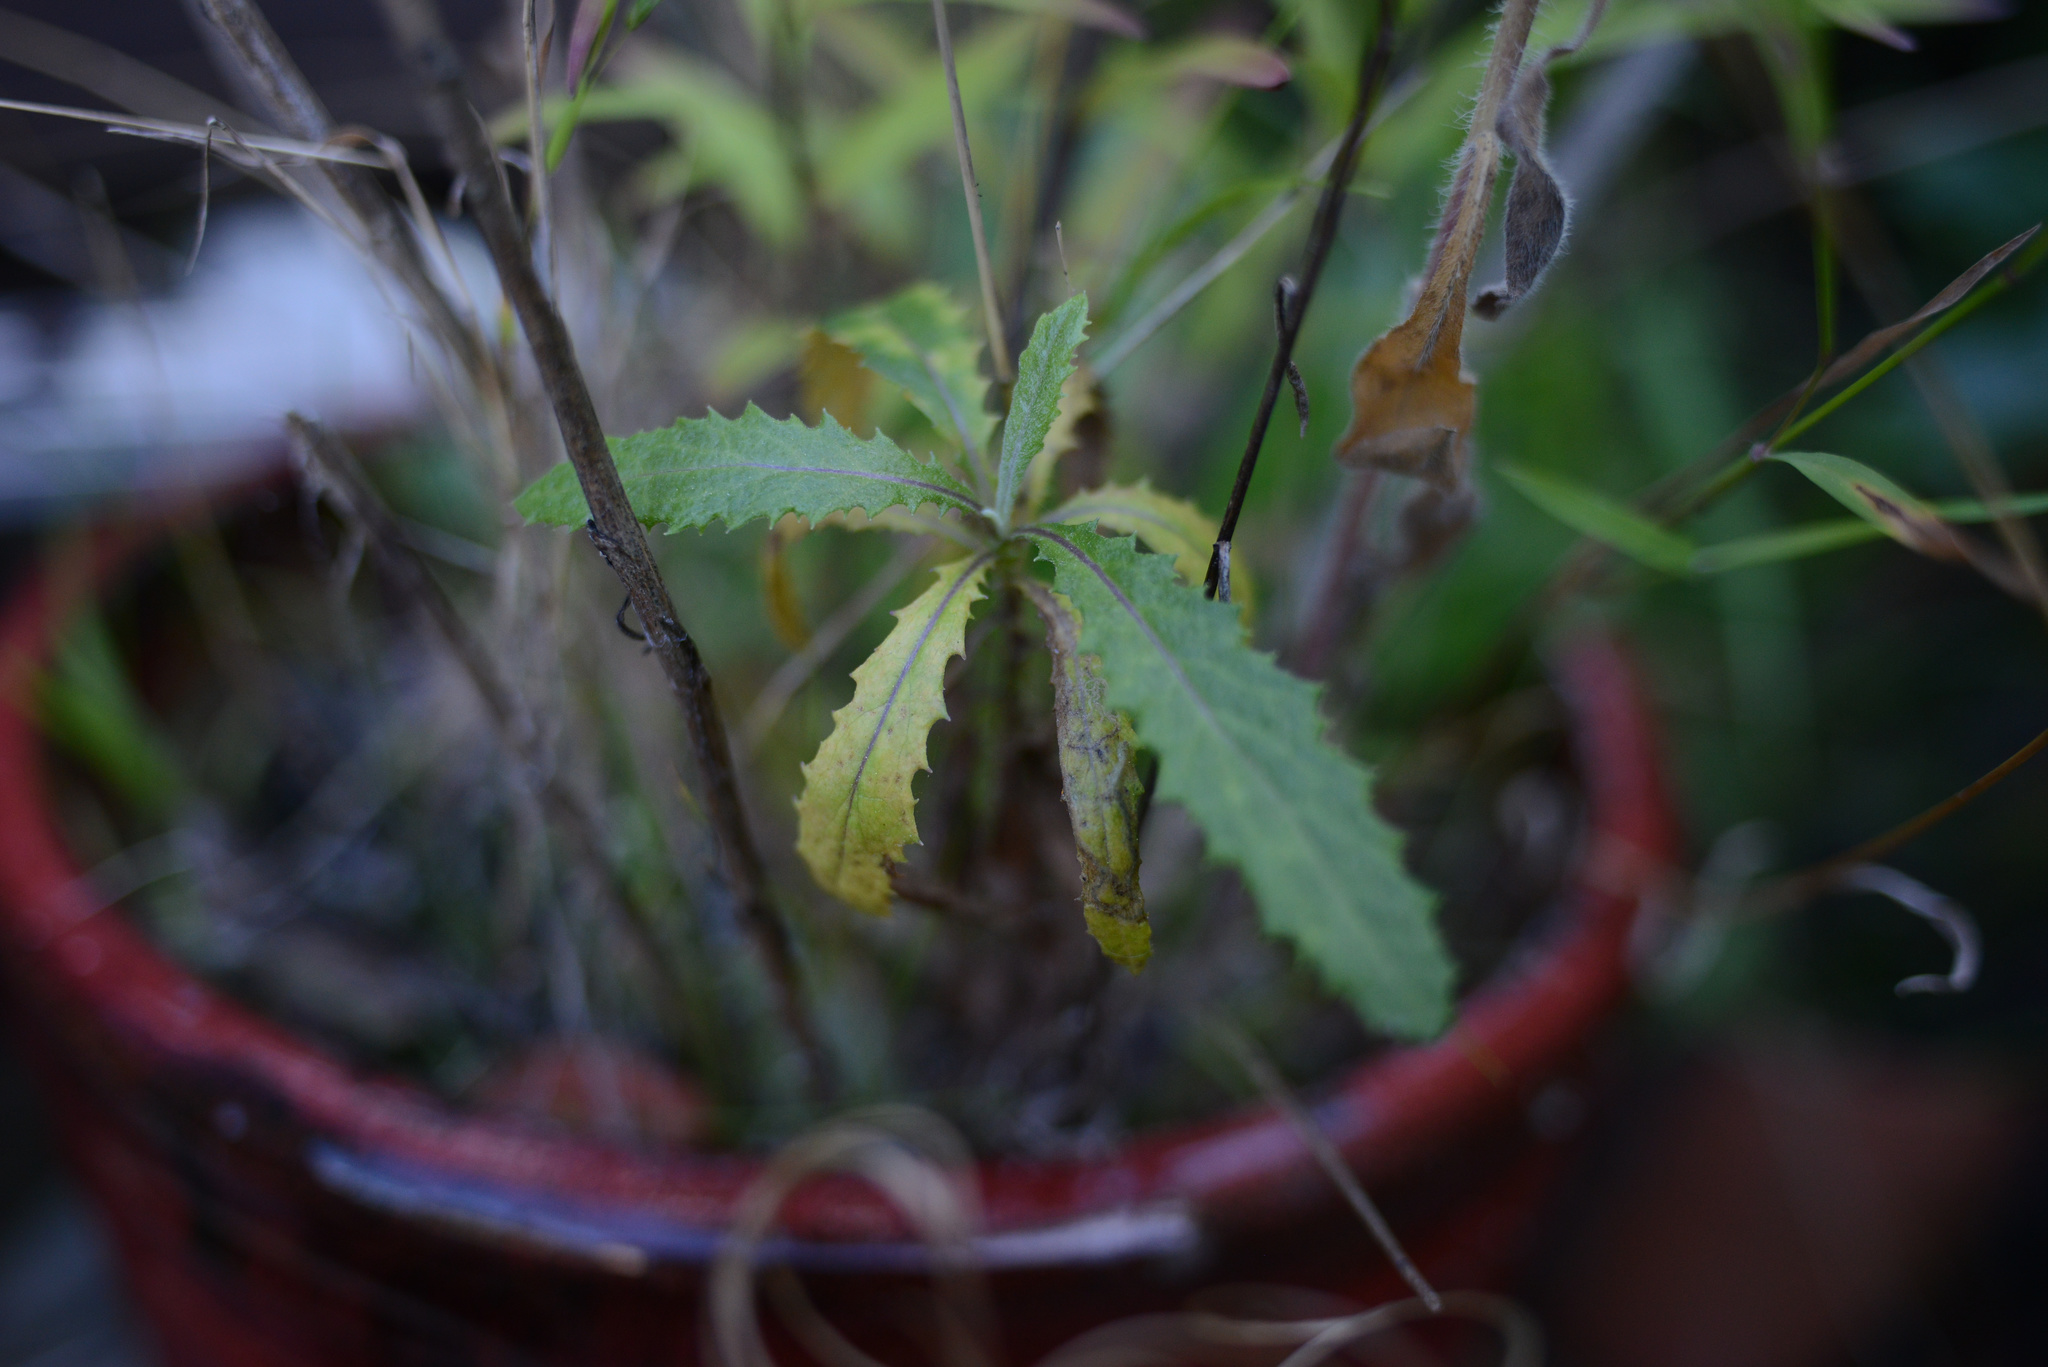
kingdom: Plantae
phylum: Tracheophyta
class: Magnoliopsida
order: Asterales
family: Asteraceae
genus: Senecio
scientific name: Senecio minimus
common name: Toothed fireweed
